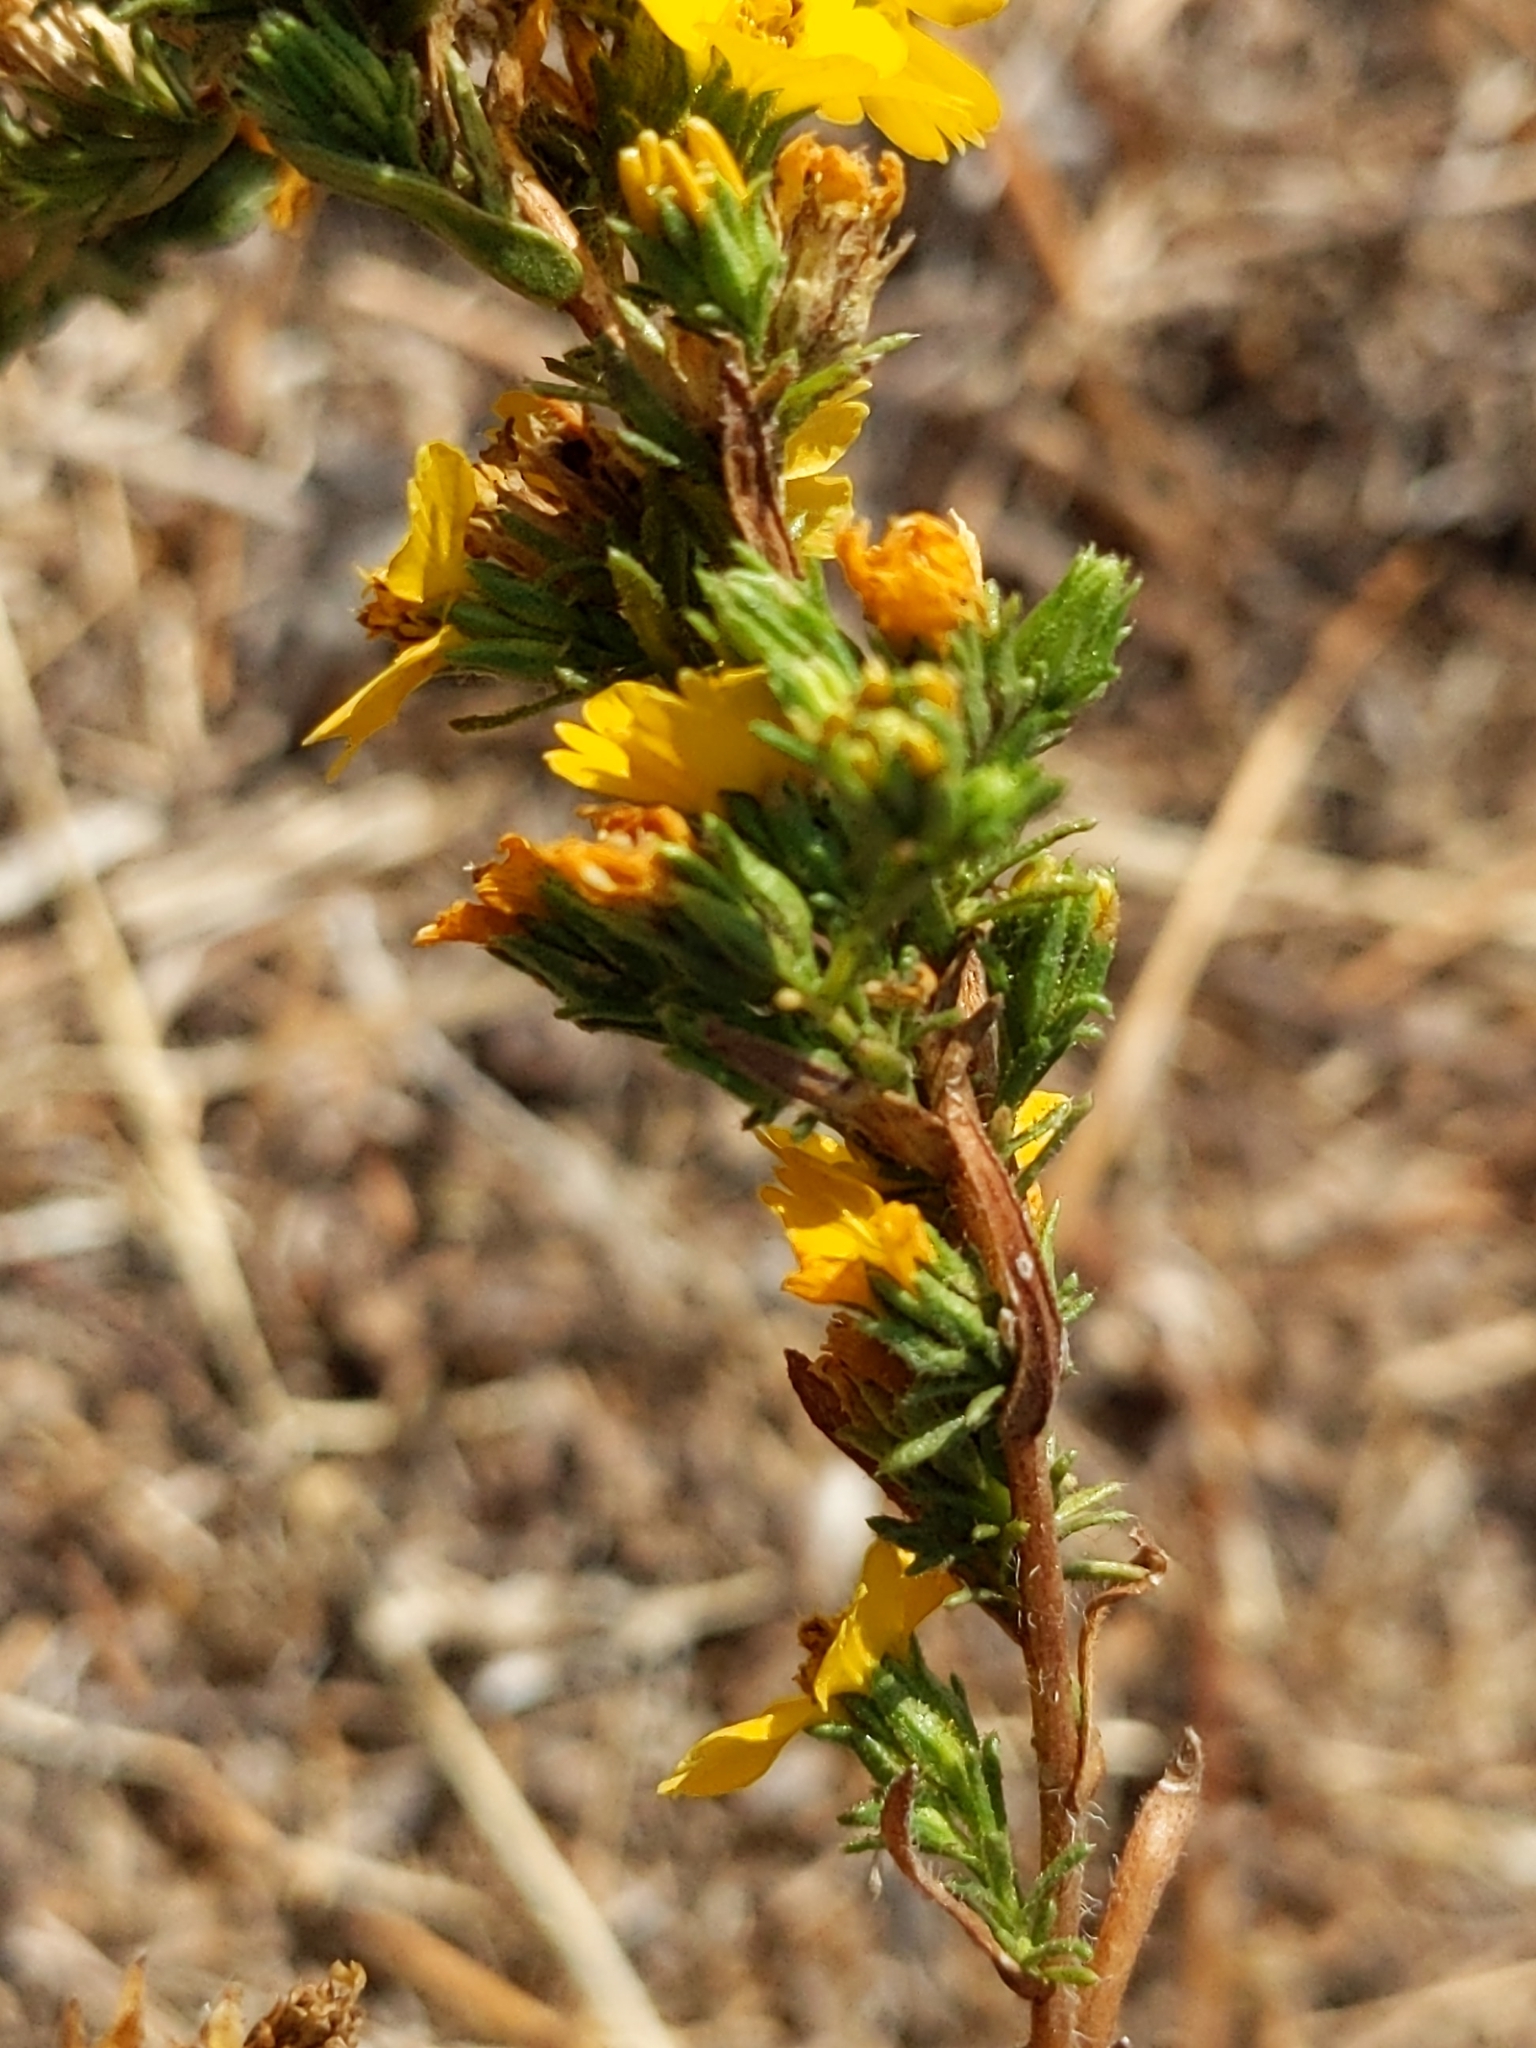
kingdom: Plantae
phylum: Tracheophyta
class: Magnoliopsida
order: Asterales
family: Asteraceae
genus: Deinandra
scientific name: Deinandra fasciculata
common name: Clustered tarweed
